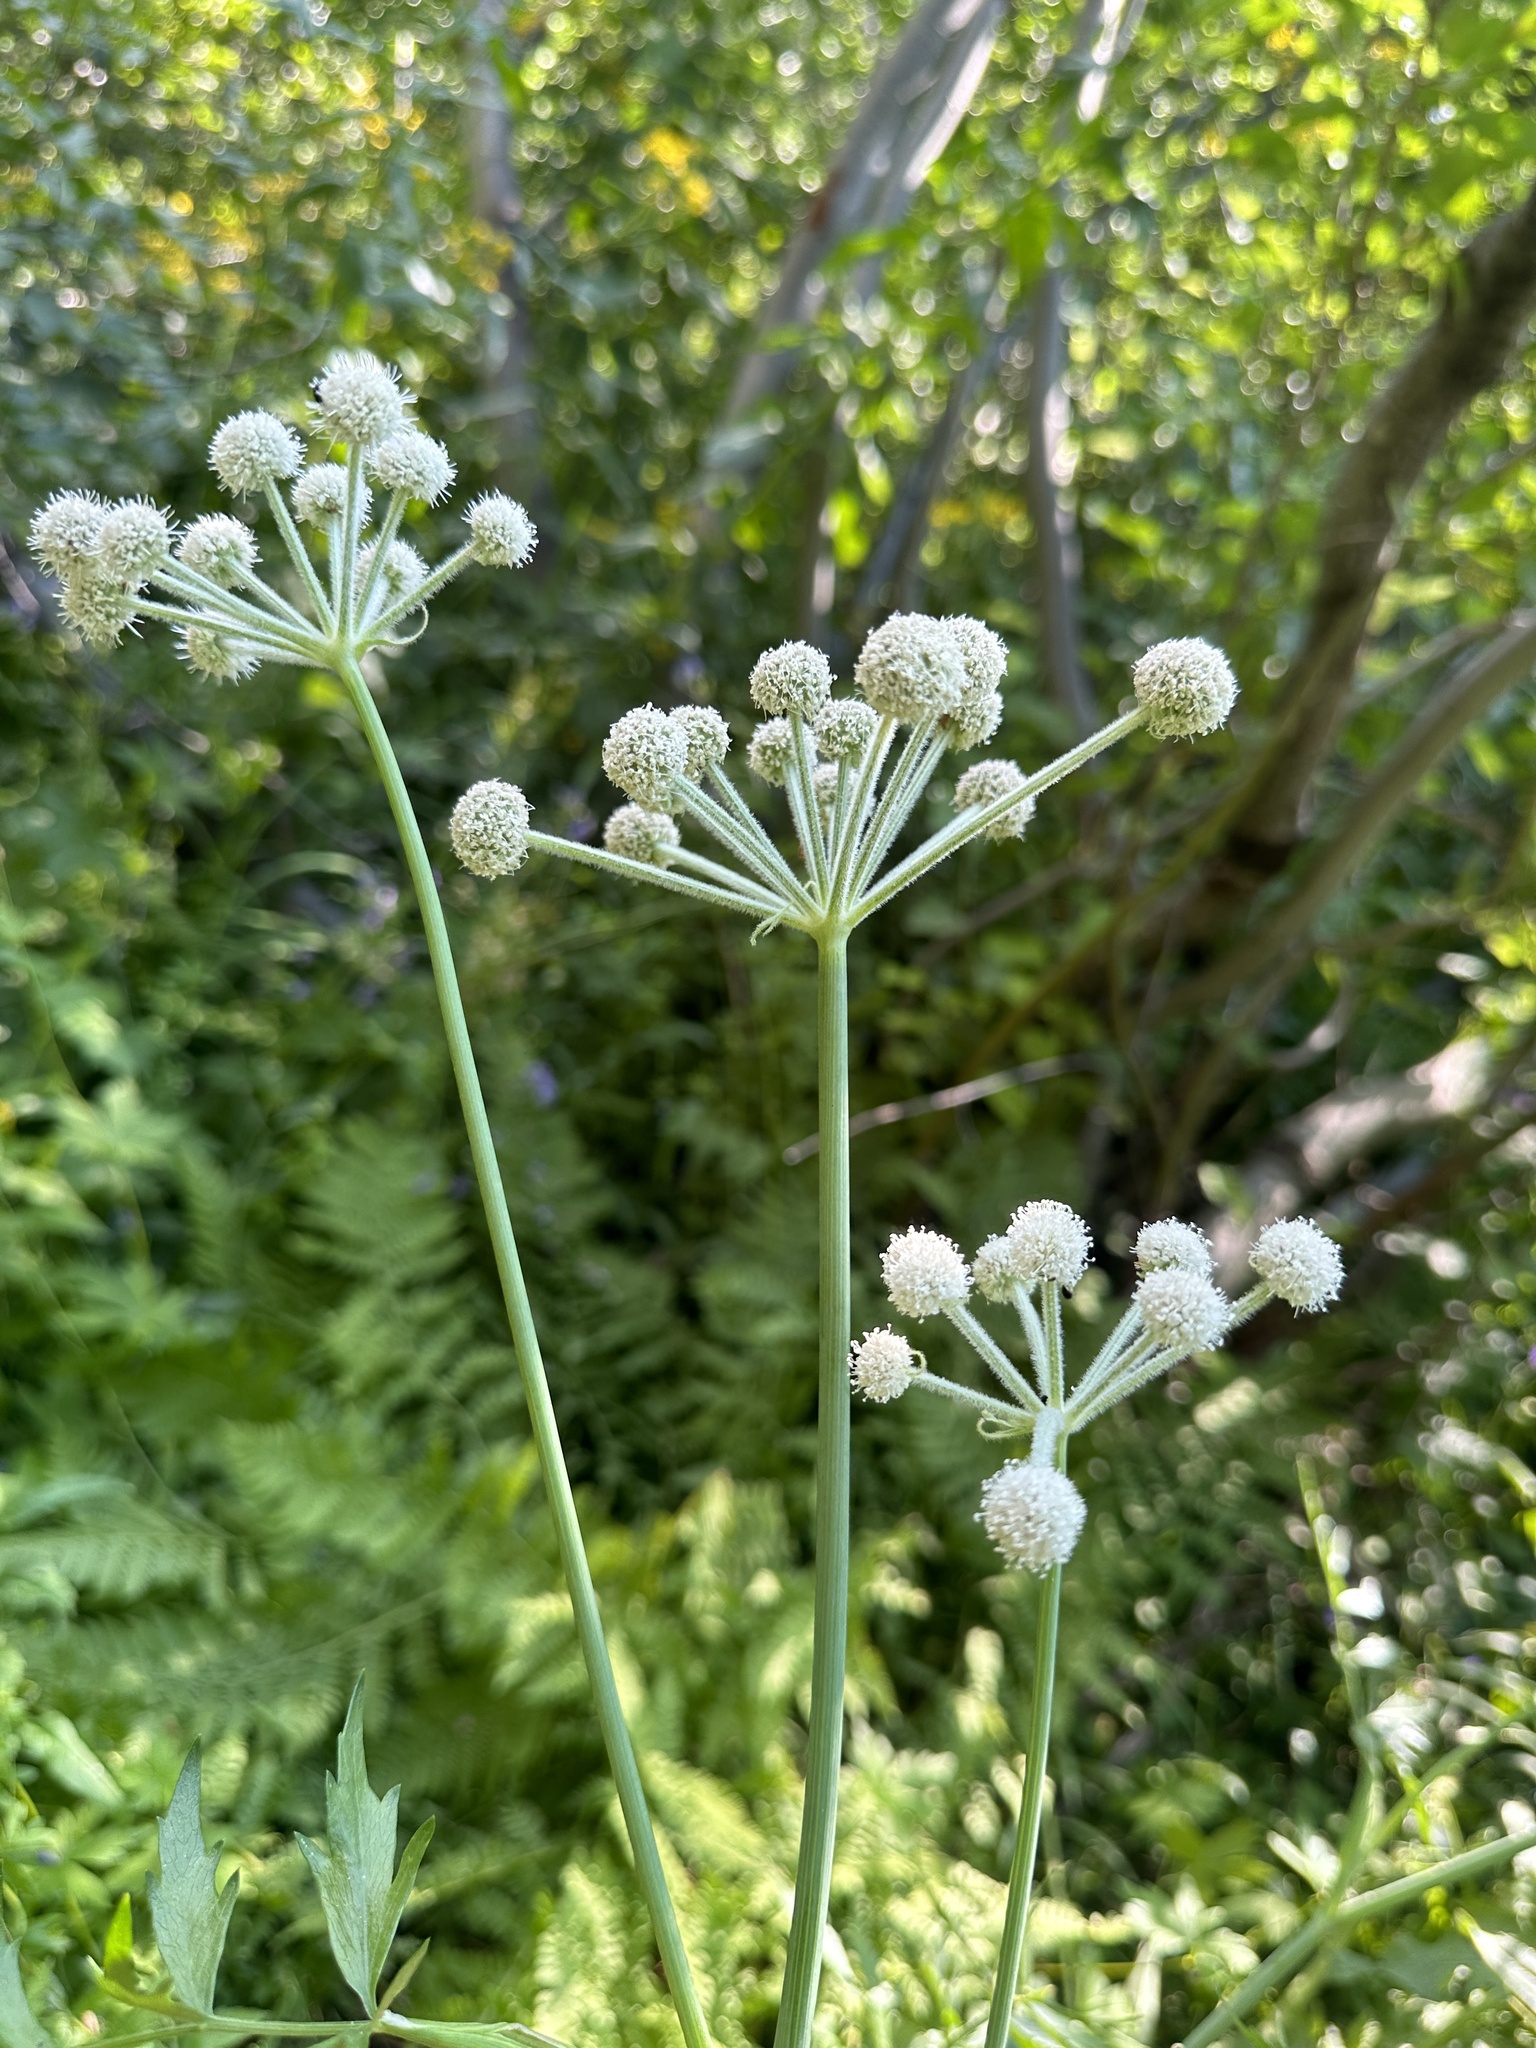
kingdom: Plantae
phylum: Tracheophyta
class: Magnoliopsida
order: Apiales
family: Apiaceae
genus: Angelica
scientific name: Angelica capitellata
